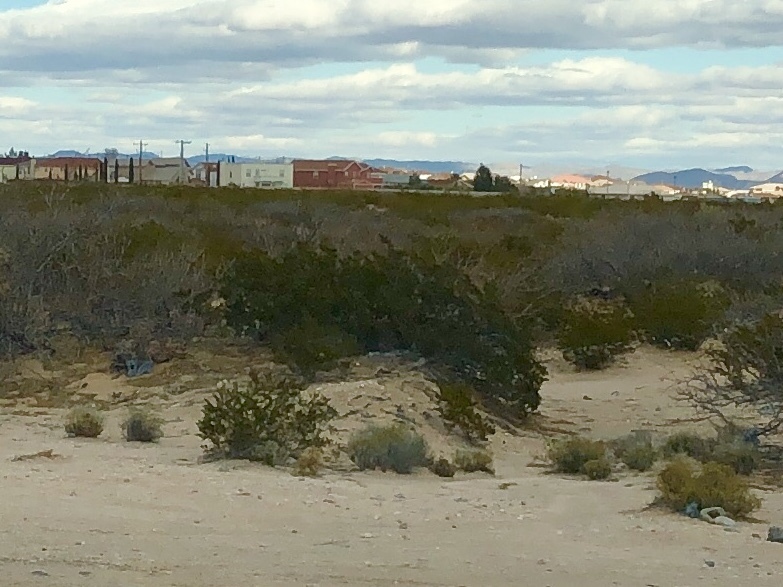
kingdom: Plantae
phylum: Tracheophyta
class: Magnoliopsida
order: Zygophyllales
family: Zygophyllaceae
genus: Larrea
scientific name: Larrea tridentata
